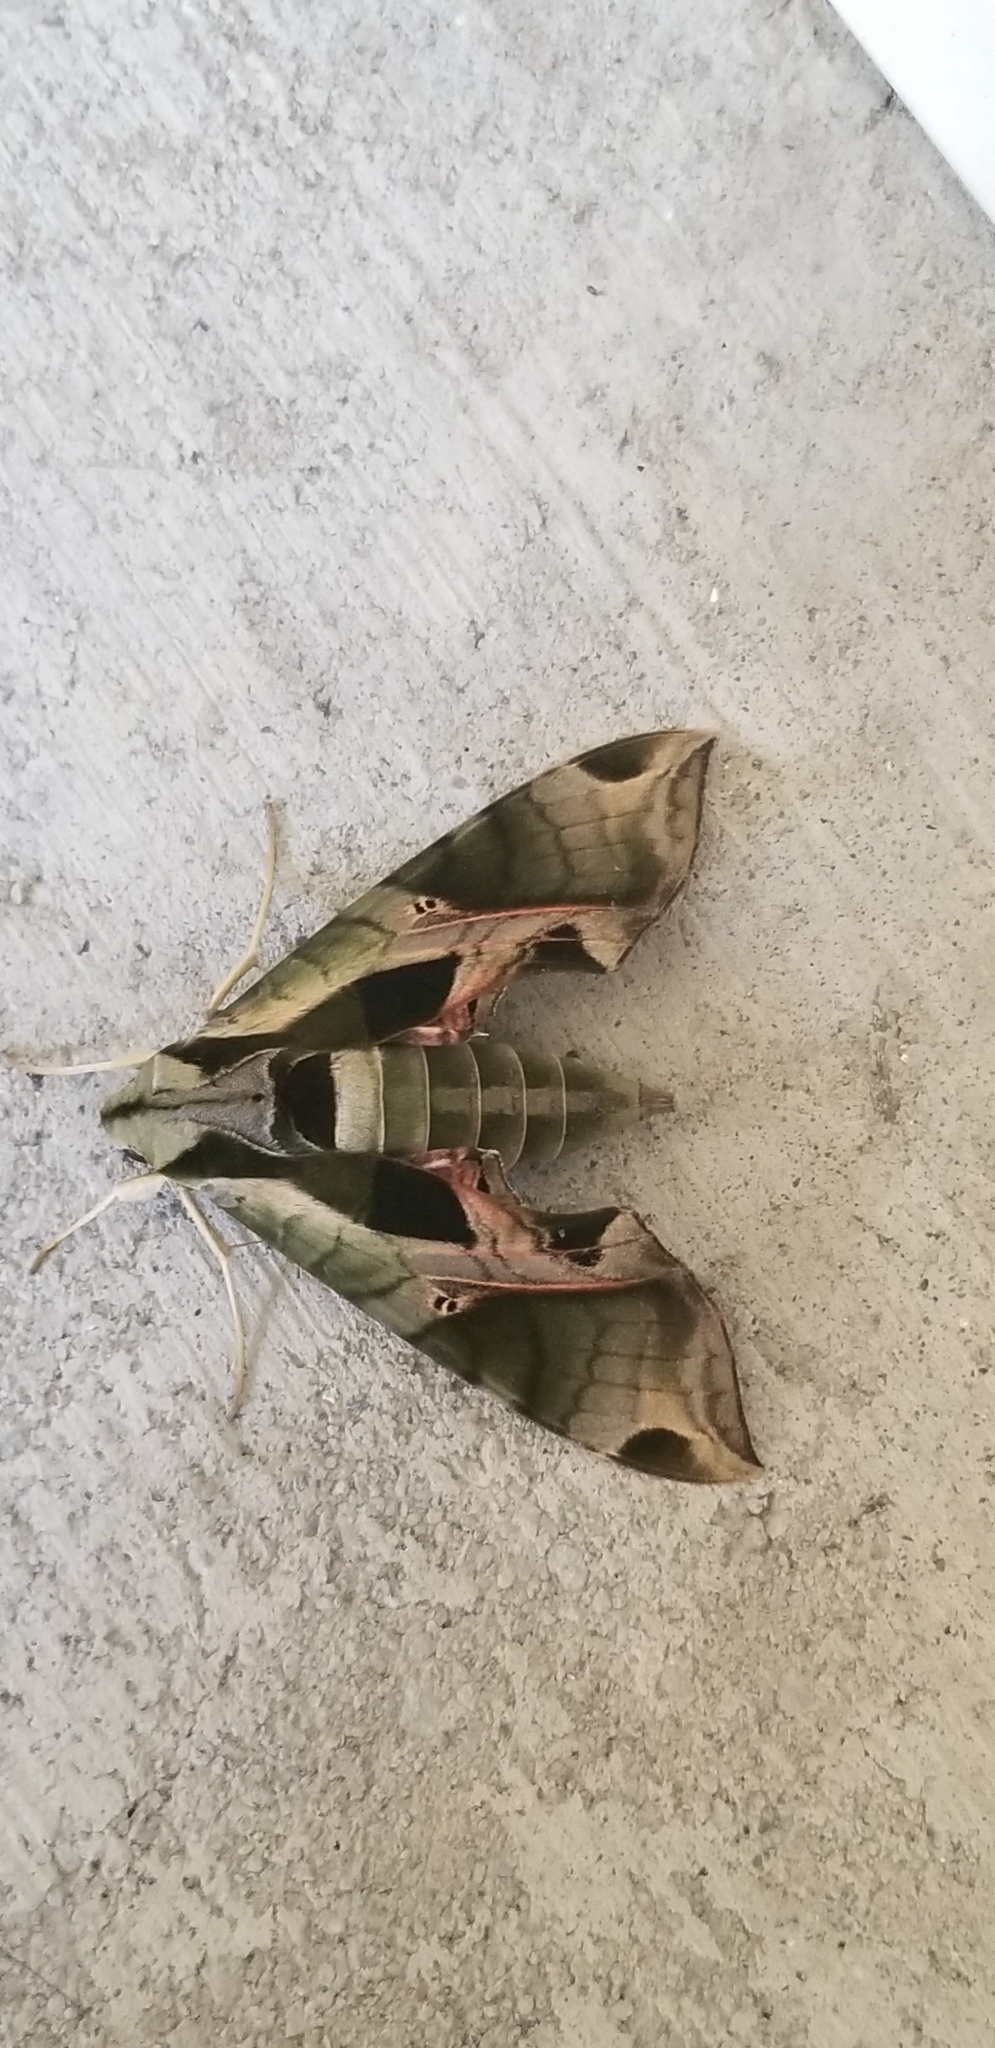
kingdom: Animalia
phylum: Arthropoda
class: Insecta
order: Lepidoptera
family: Sphingidae
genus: Eumorpha
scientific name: Eumorpha pandorus
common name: Pandora sphinx
